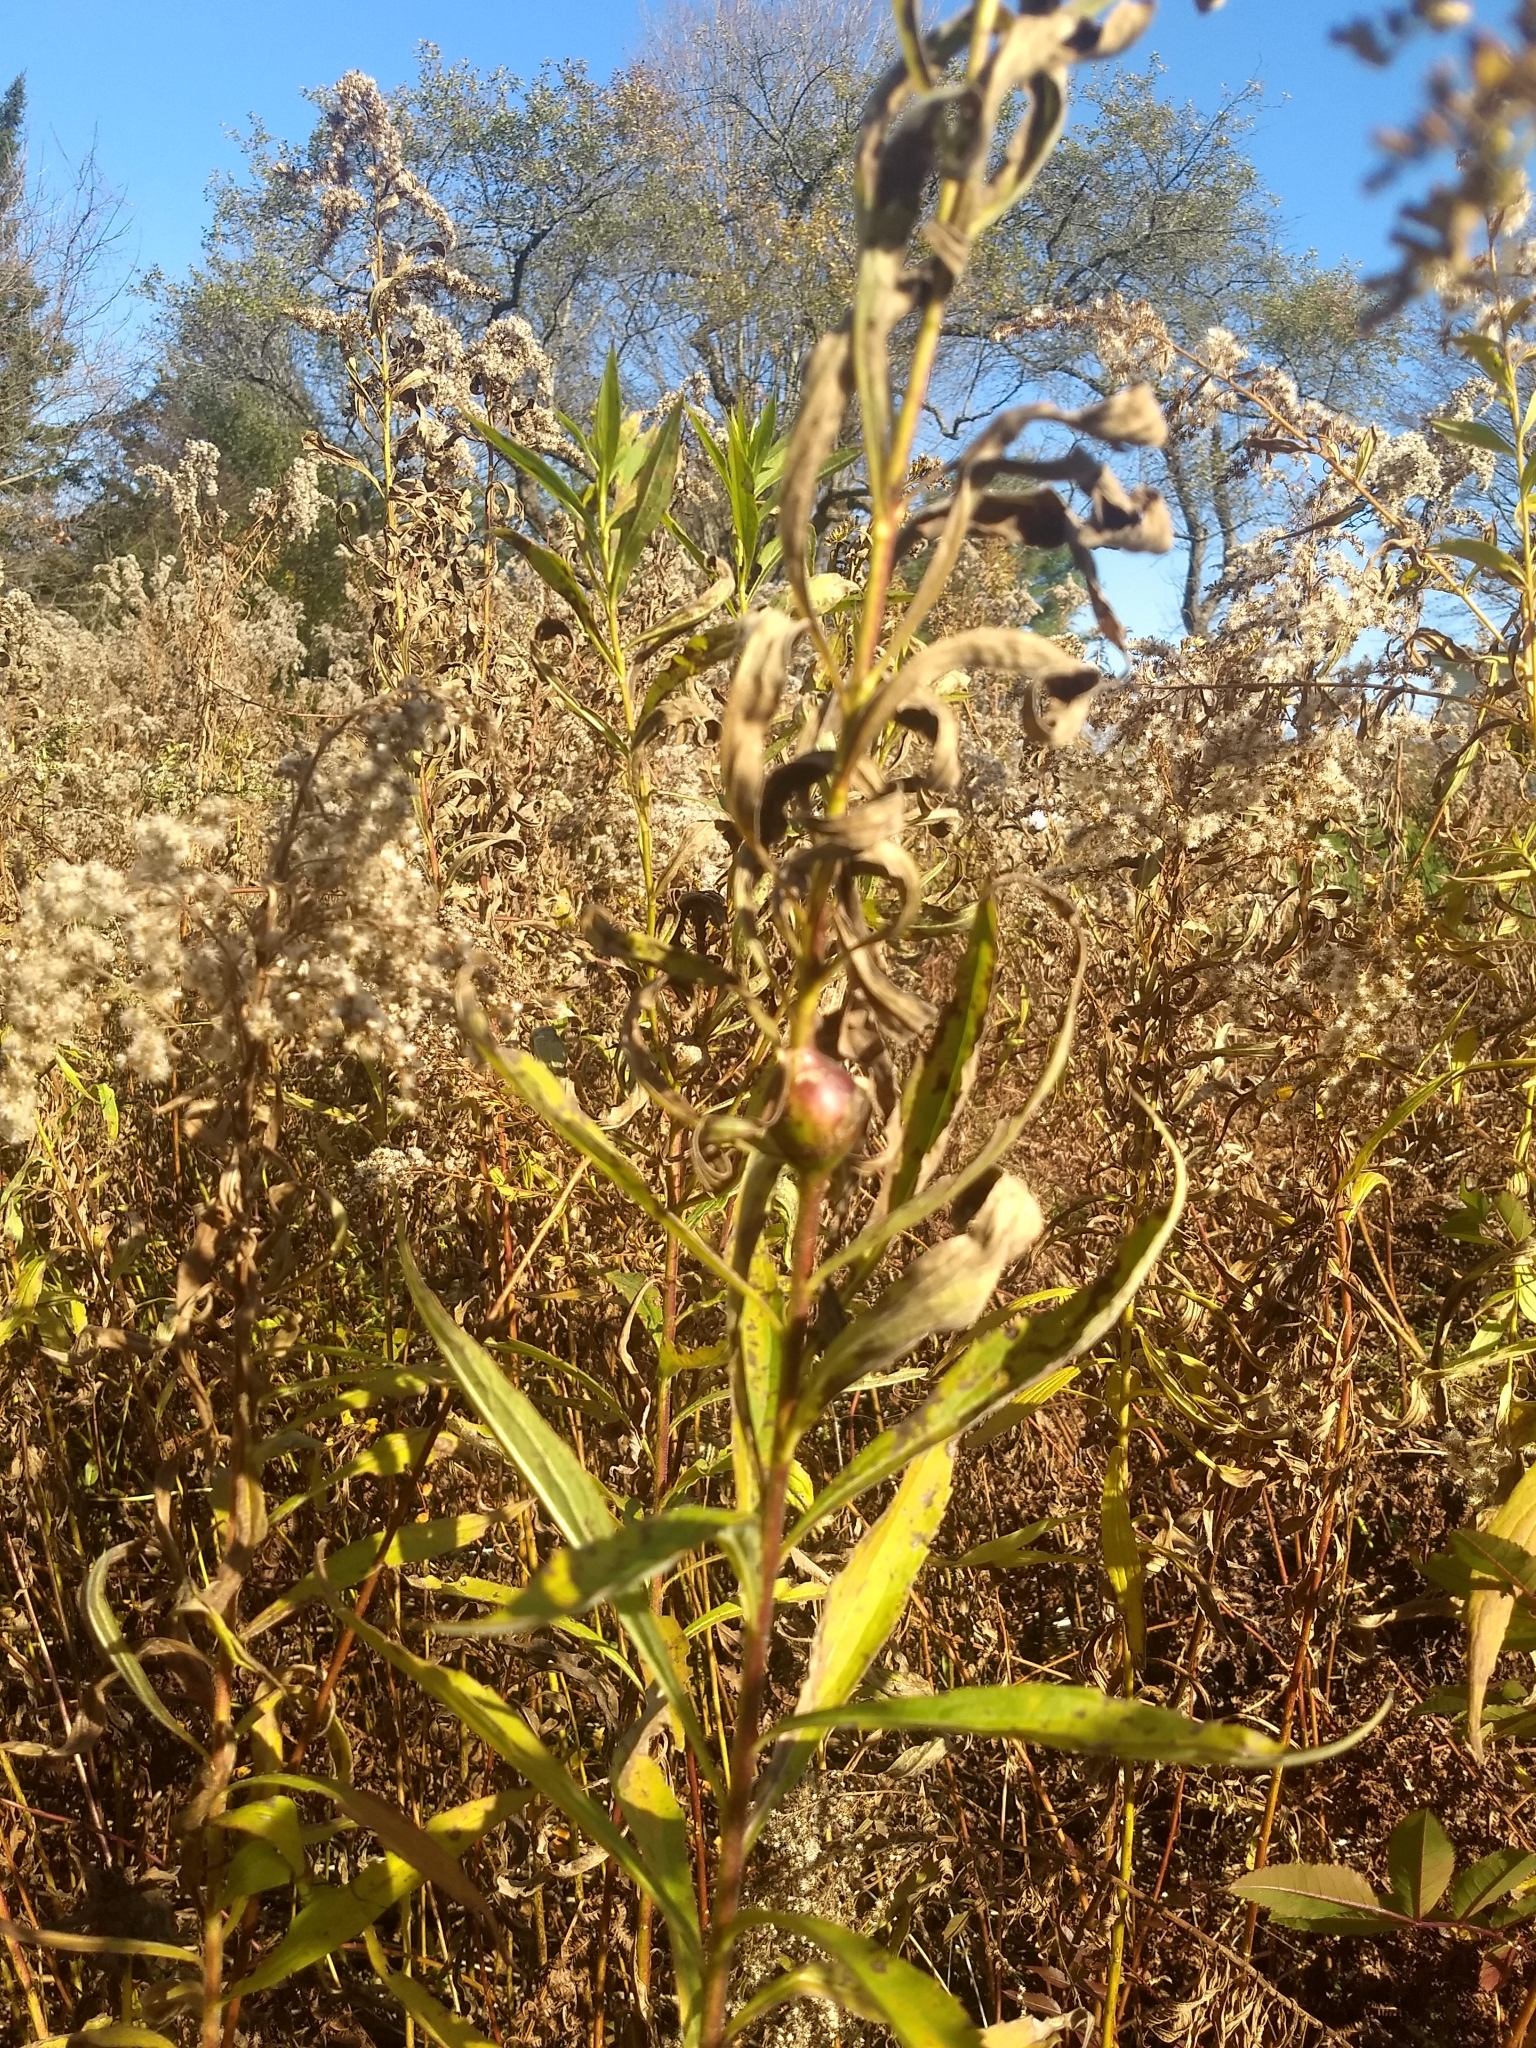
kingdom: Animalia
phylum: Arthropoda
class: Insecta
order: Diptera
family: Tephritidae
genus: Eurosta
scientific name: Eurosta solidaginis
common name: Goldenrod gall fly
